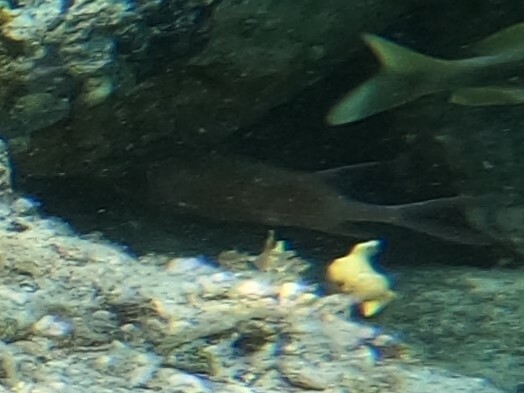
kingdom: Animalia
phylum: Chordata
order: Beryciformes
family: Holocentridae
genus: Holocentrus
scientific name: Holocentrus
